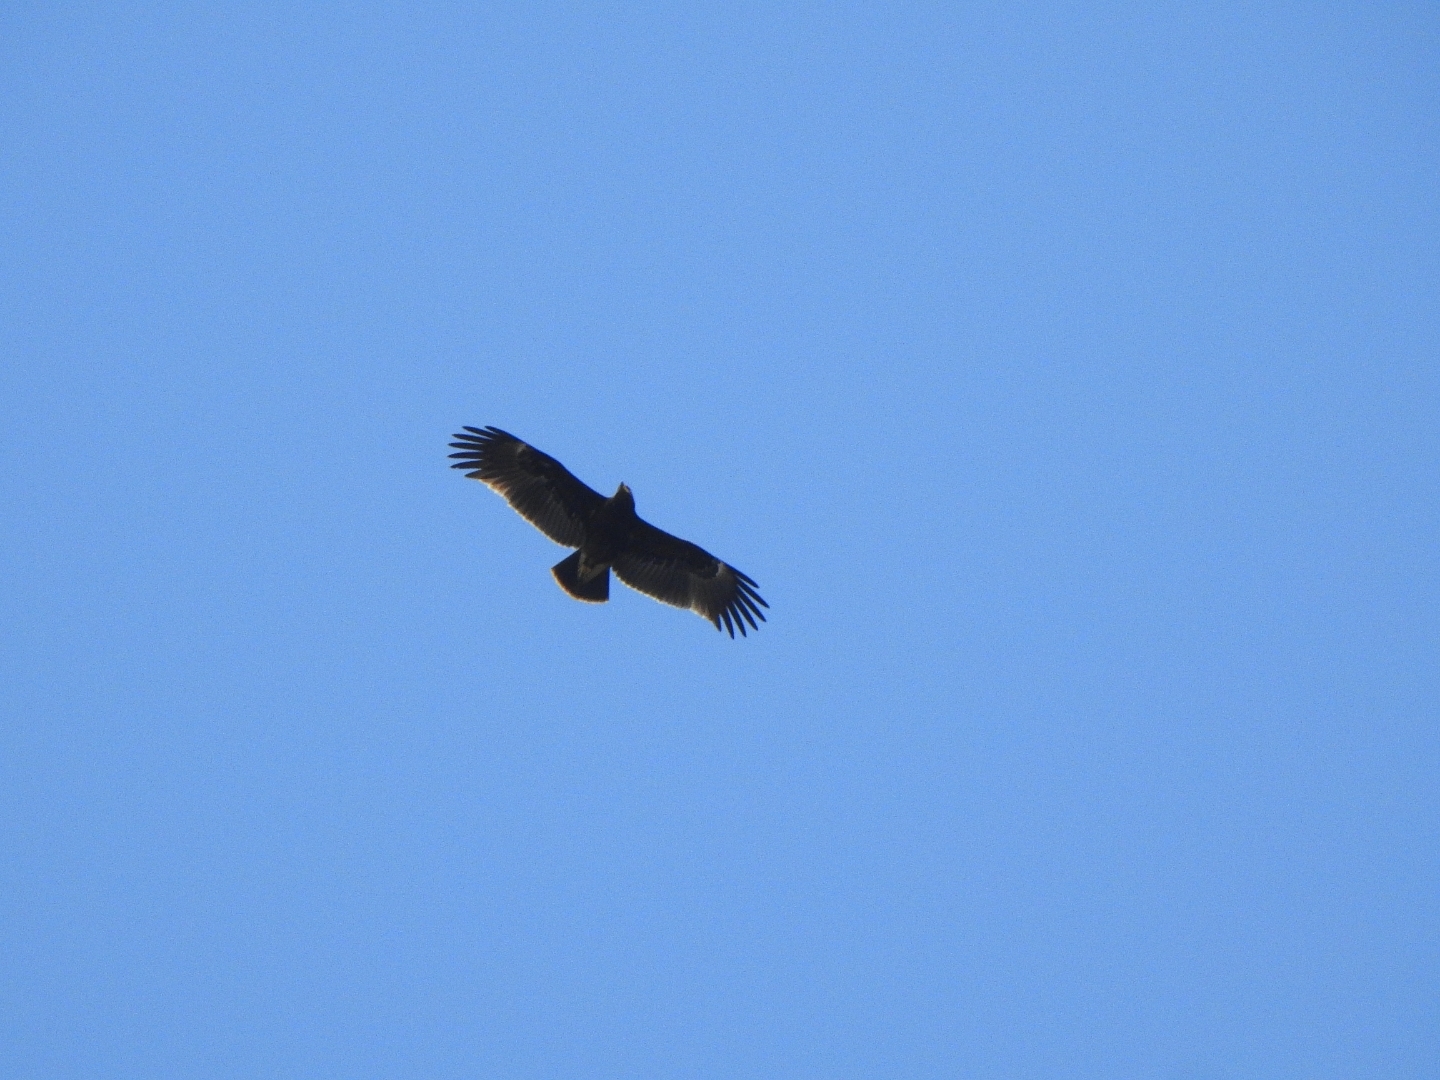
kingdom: Animalia
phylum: Chordata
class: Aves
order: Accipitriformes
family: Accipitridae
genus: Aquila
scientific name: Aquila clanga
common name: Greater spotted eagle
